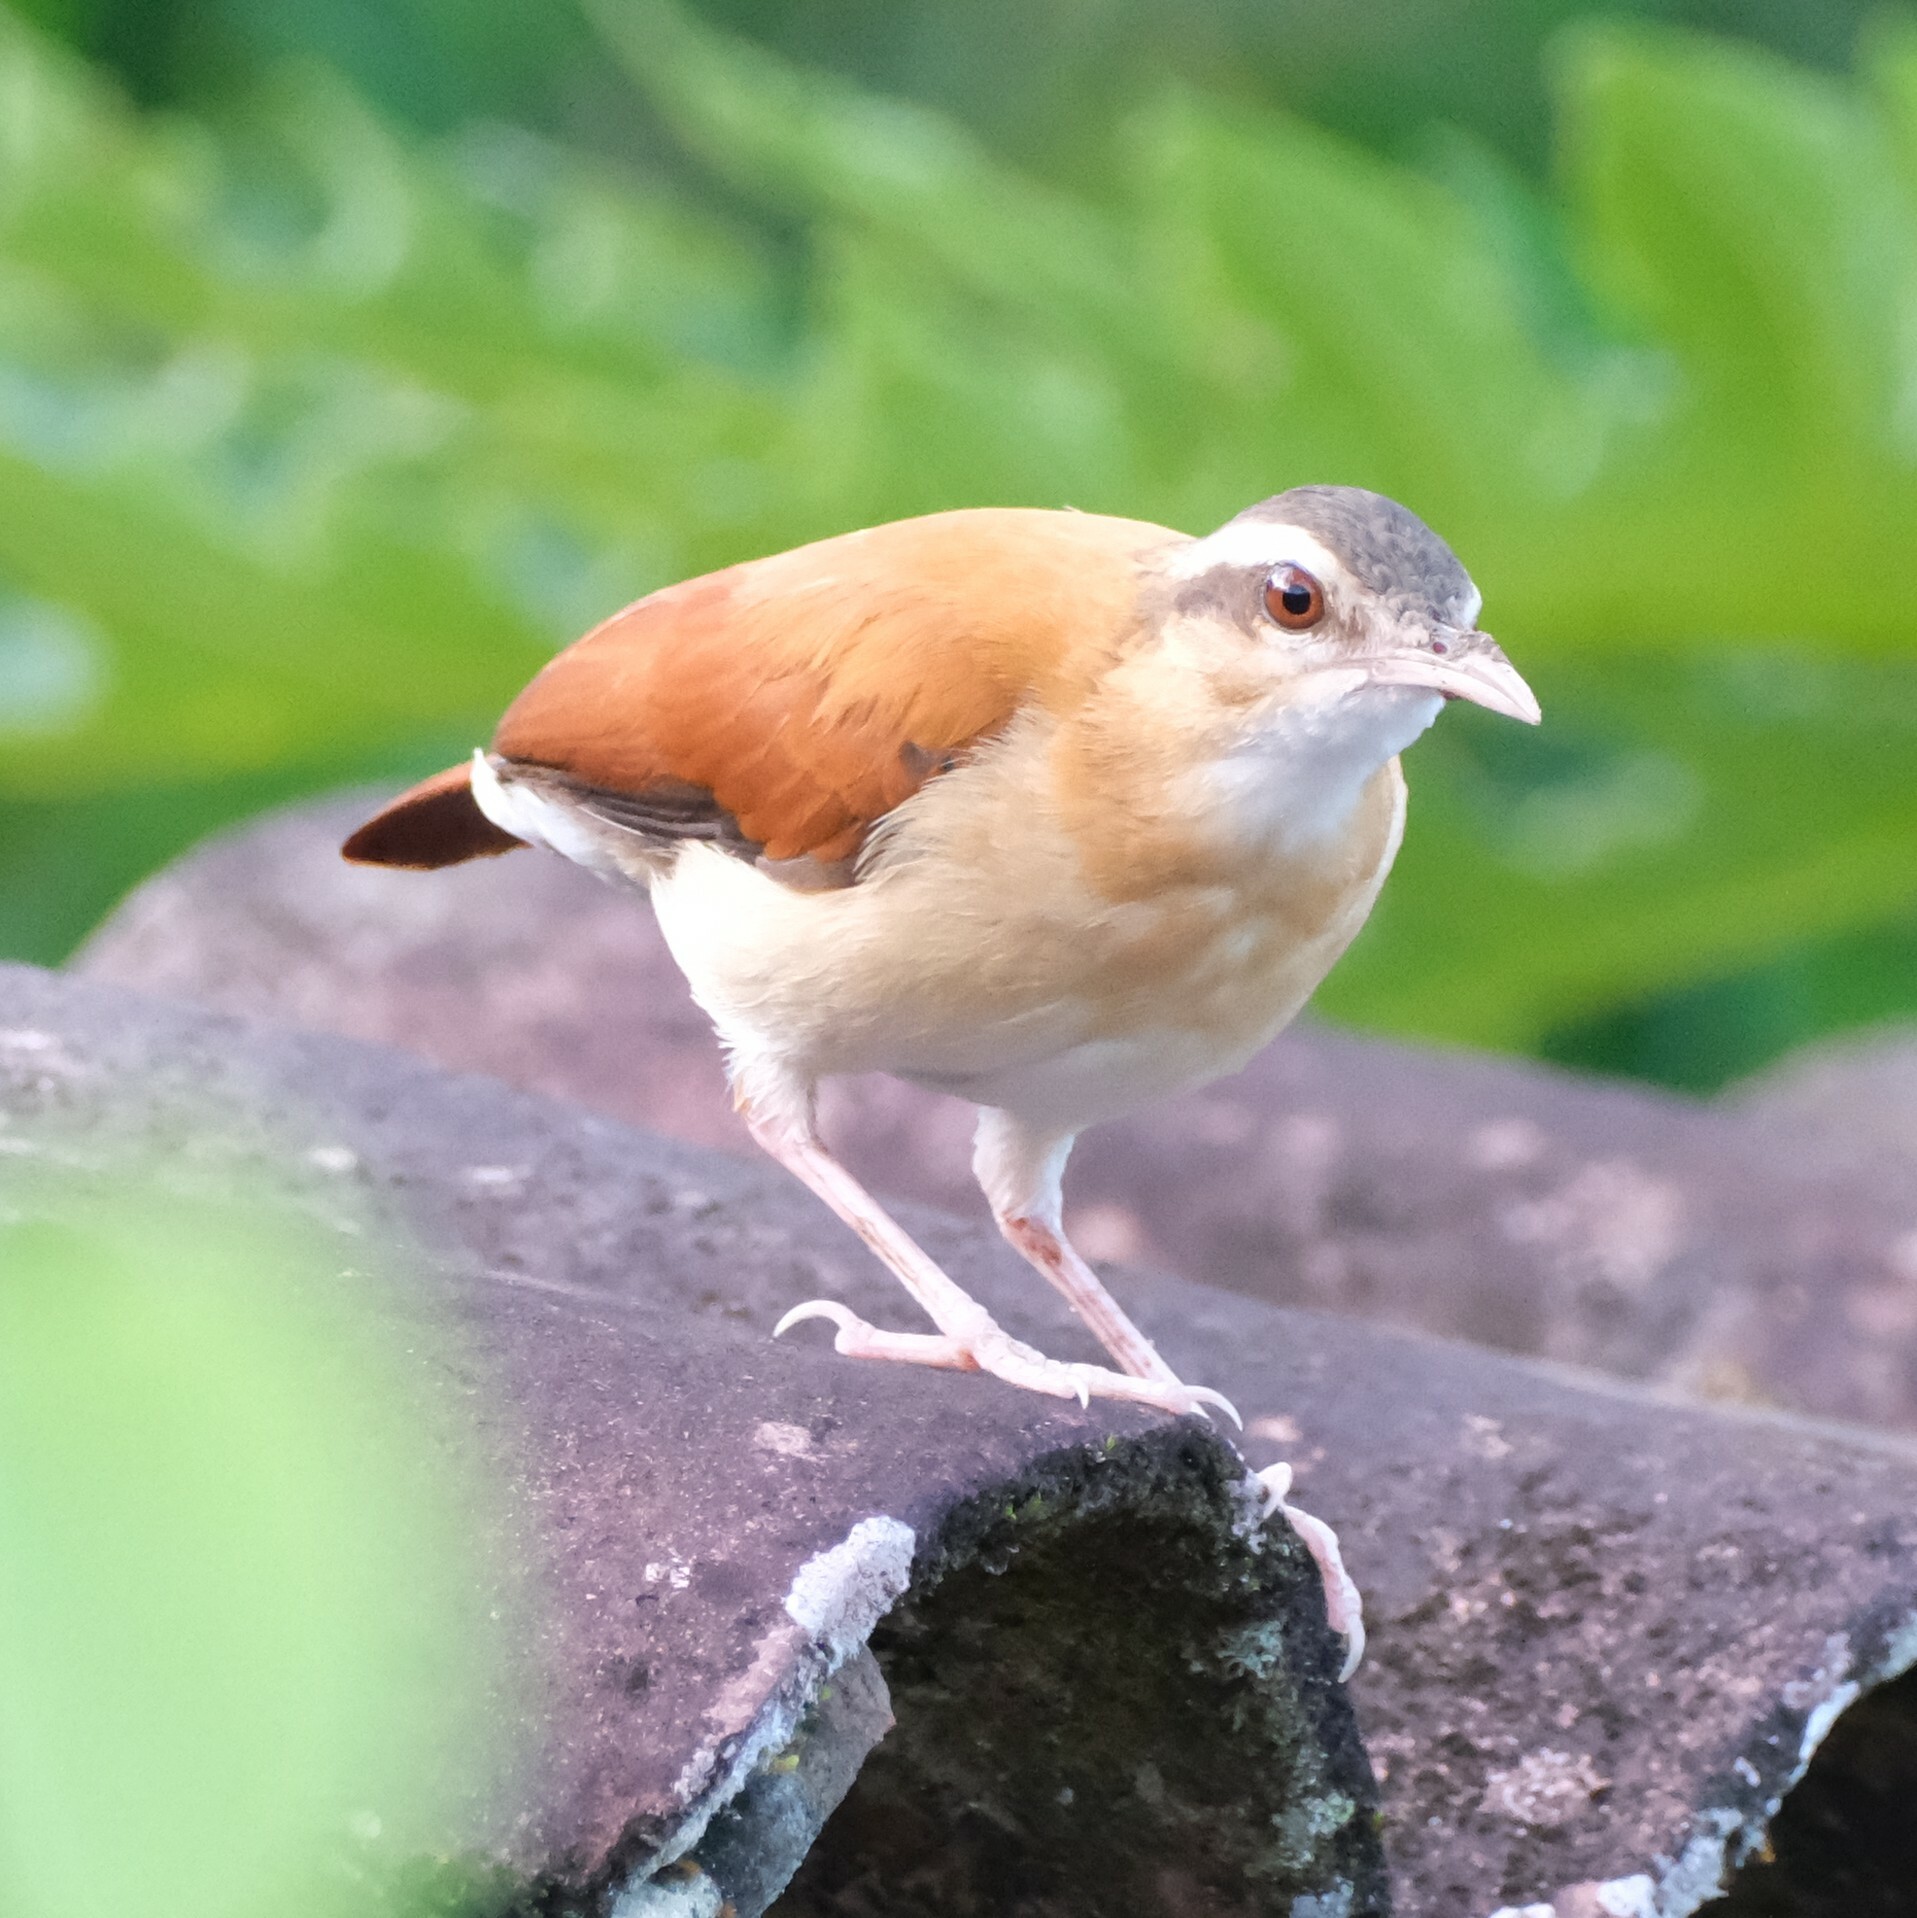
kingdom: Animalia
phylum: Chordata
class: Aves
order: Passeriformes
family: Furnariidae
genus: Furnarius
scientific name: Furnarius leucopus
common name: Pale-legged hornero
